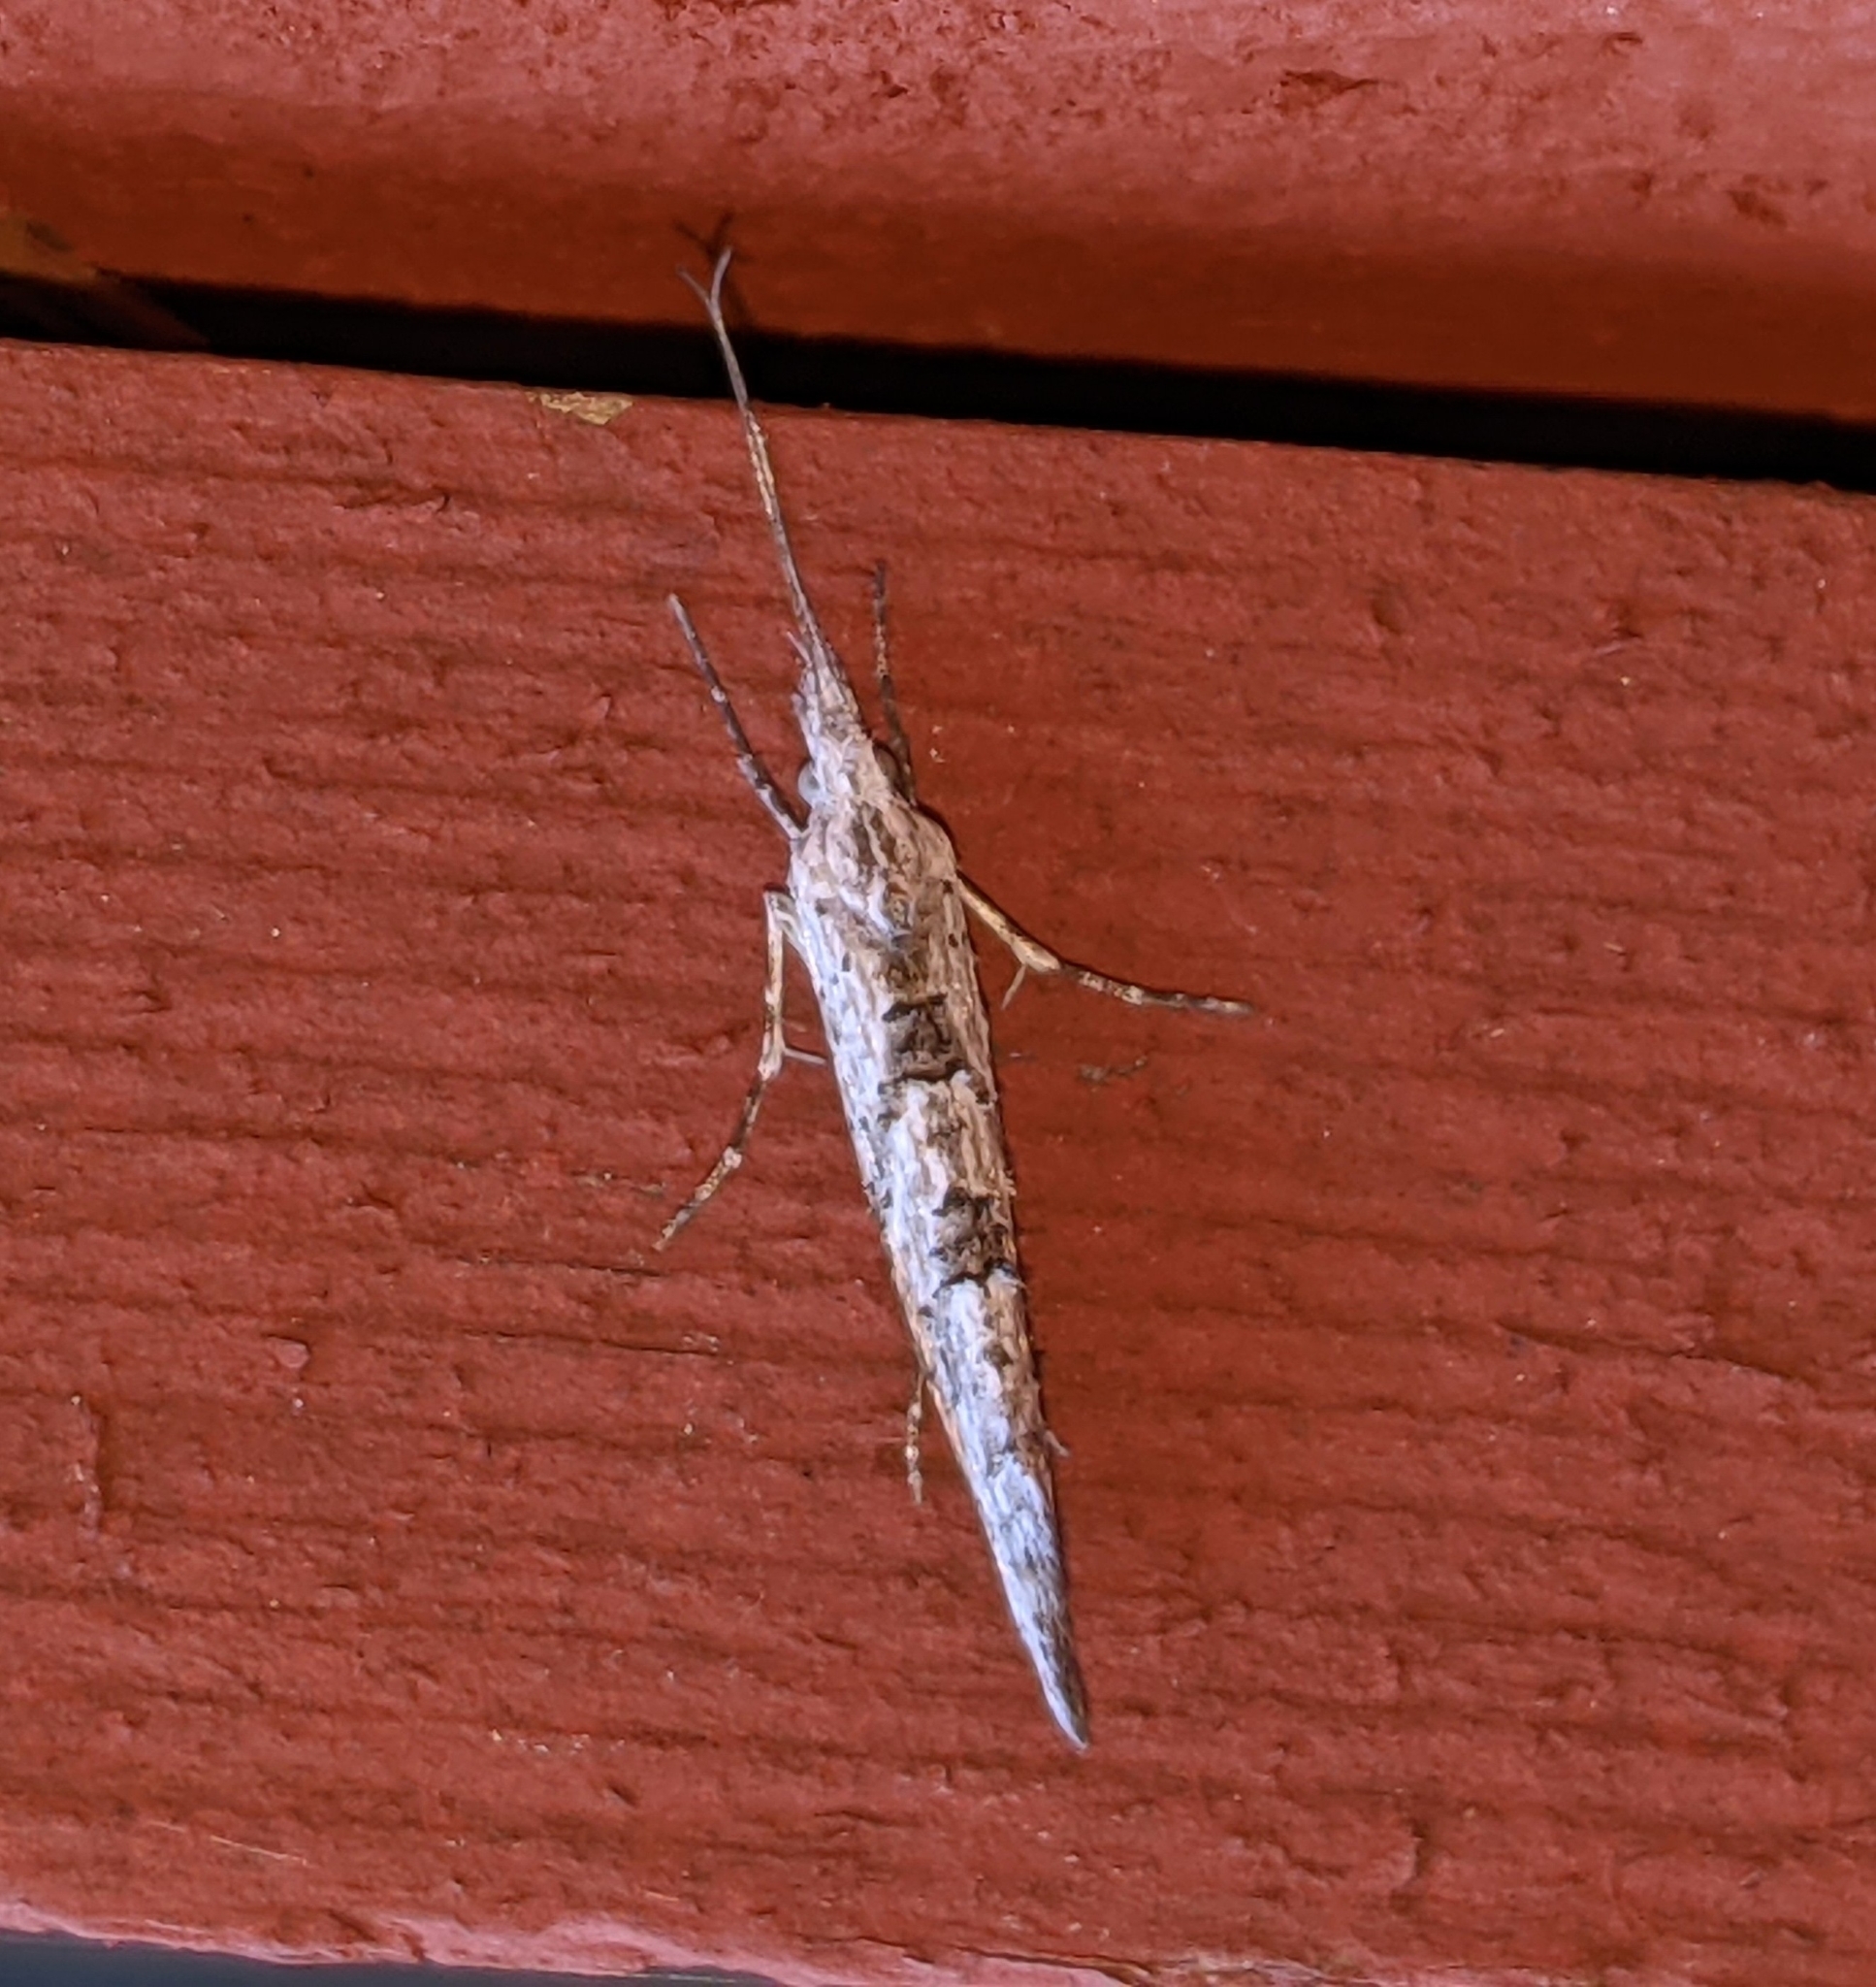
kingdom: Animalia
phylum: Arthropoda
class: Insecta
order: Lepidoptera
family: Ypsolophidae
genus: Ypsolopha
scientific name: Ypsolopha falciferella
